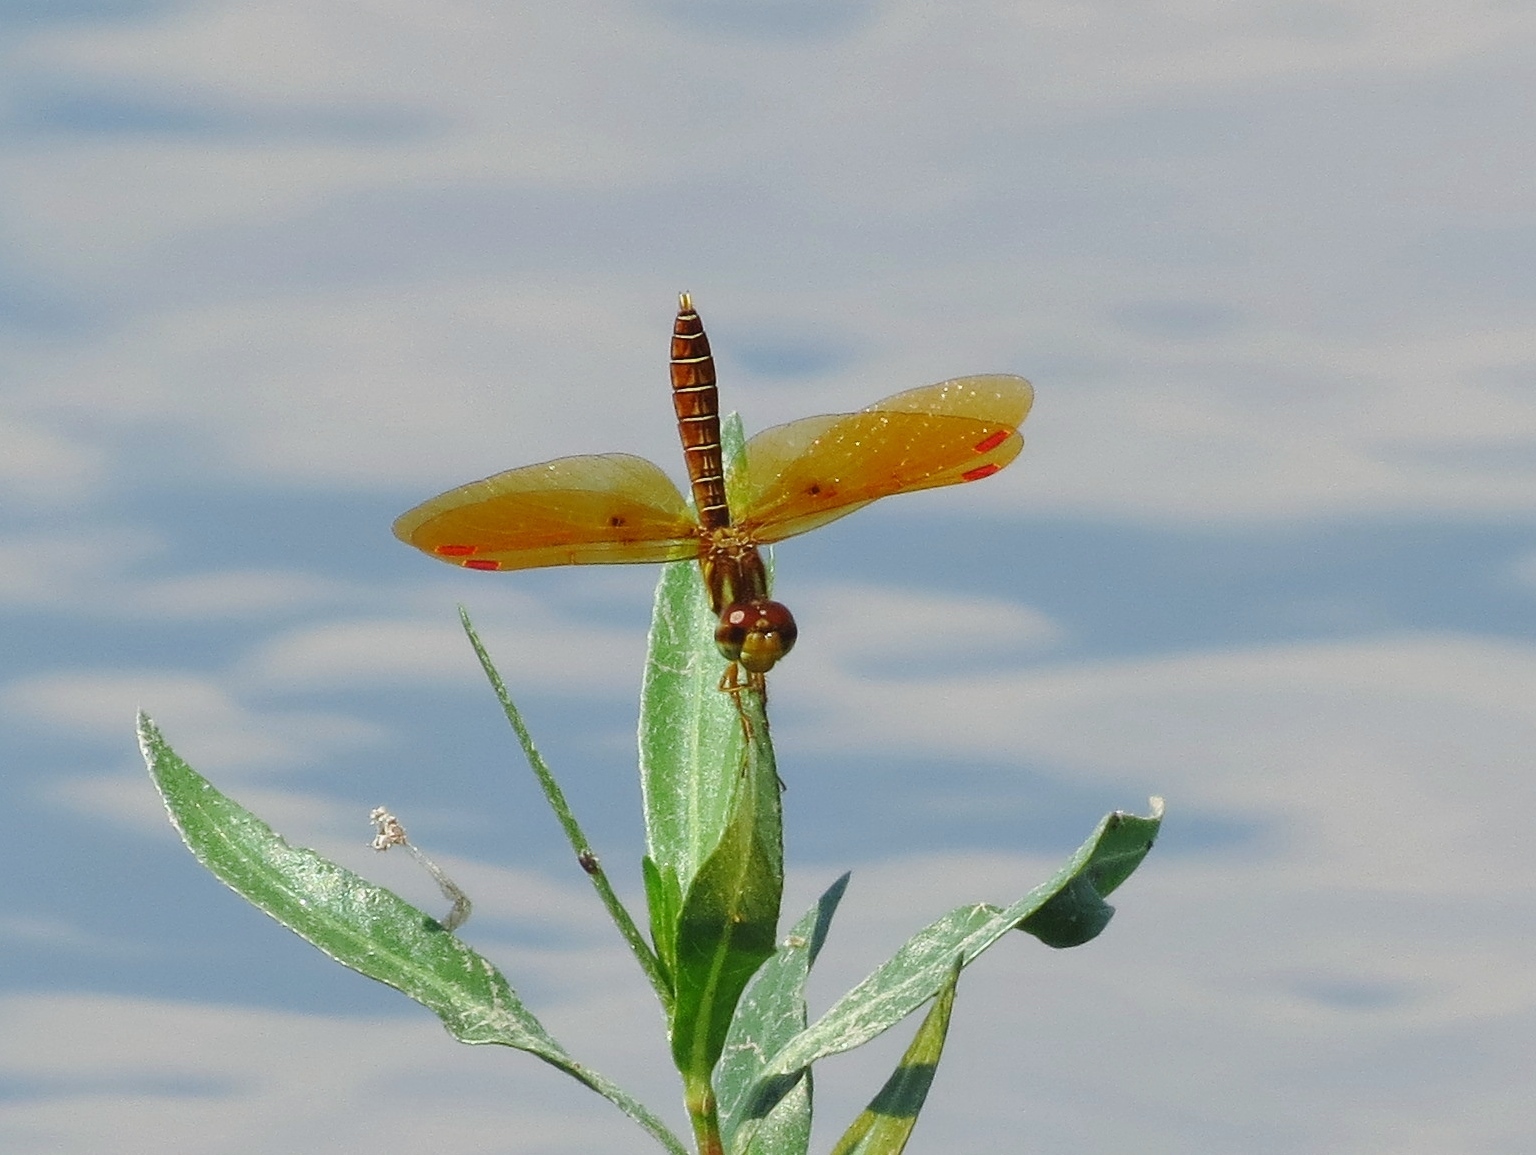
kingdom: Animalia
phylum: Arthropoda
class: Insecta
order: Odonata
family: Libellulidae
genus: Perithemis
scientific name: Perithemis tenera
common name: Eastern amberwing
